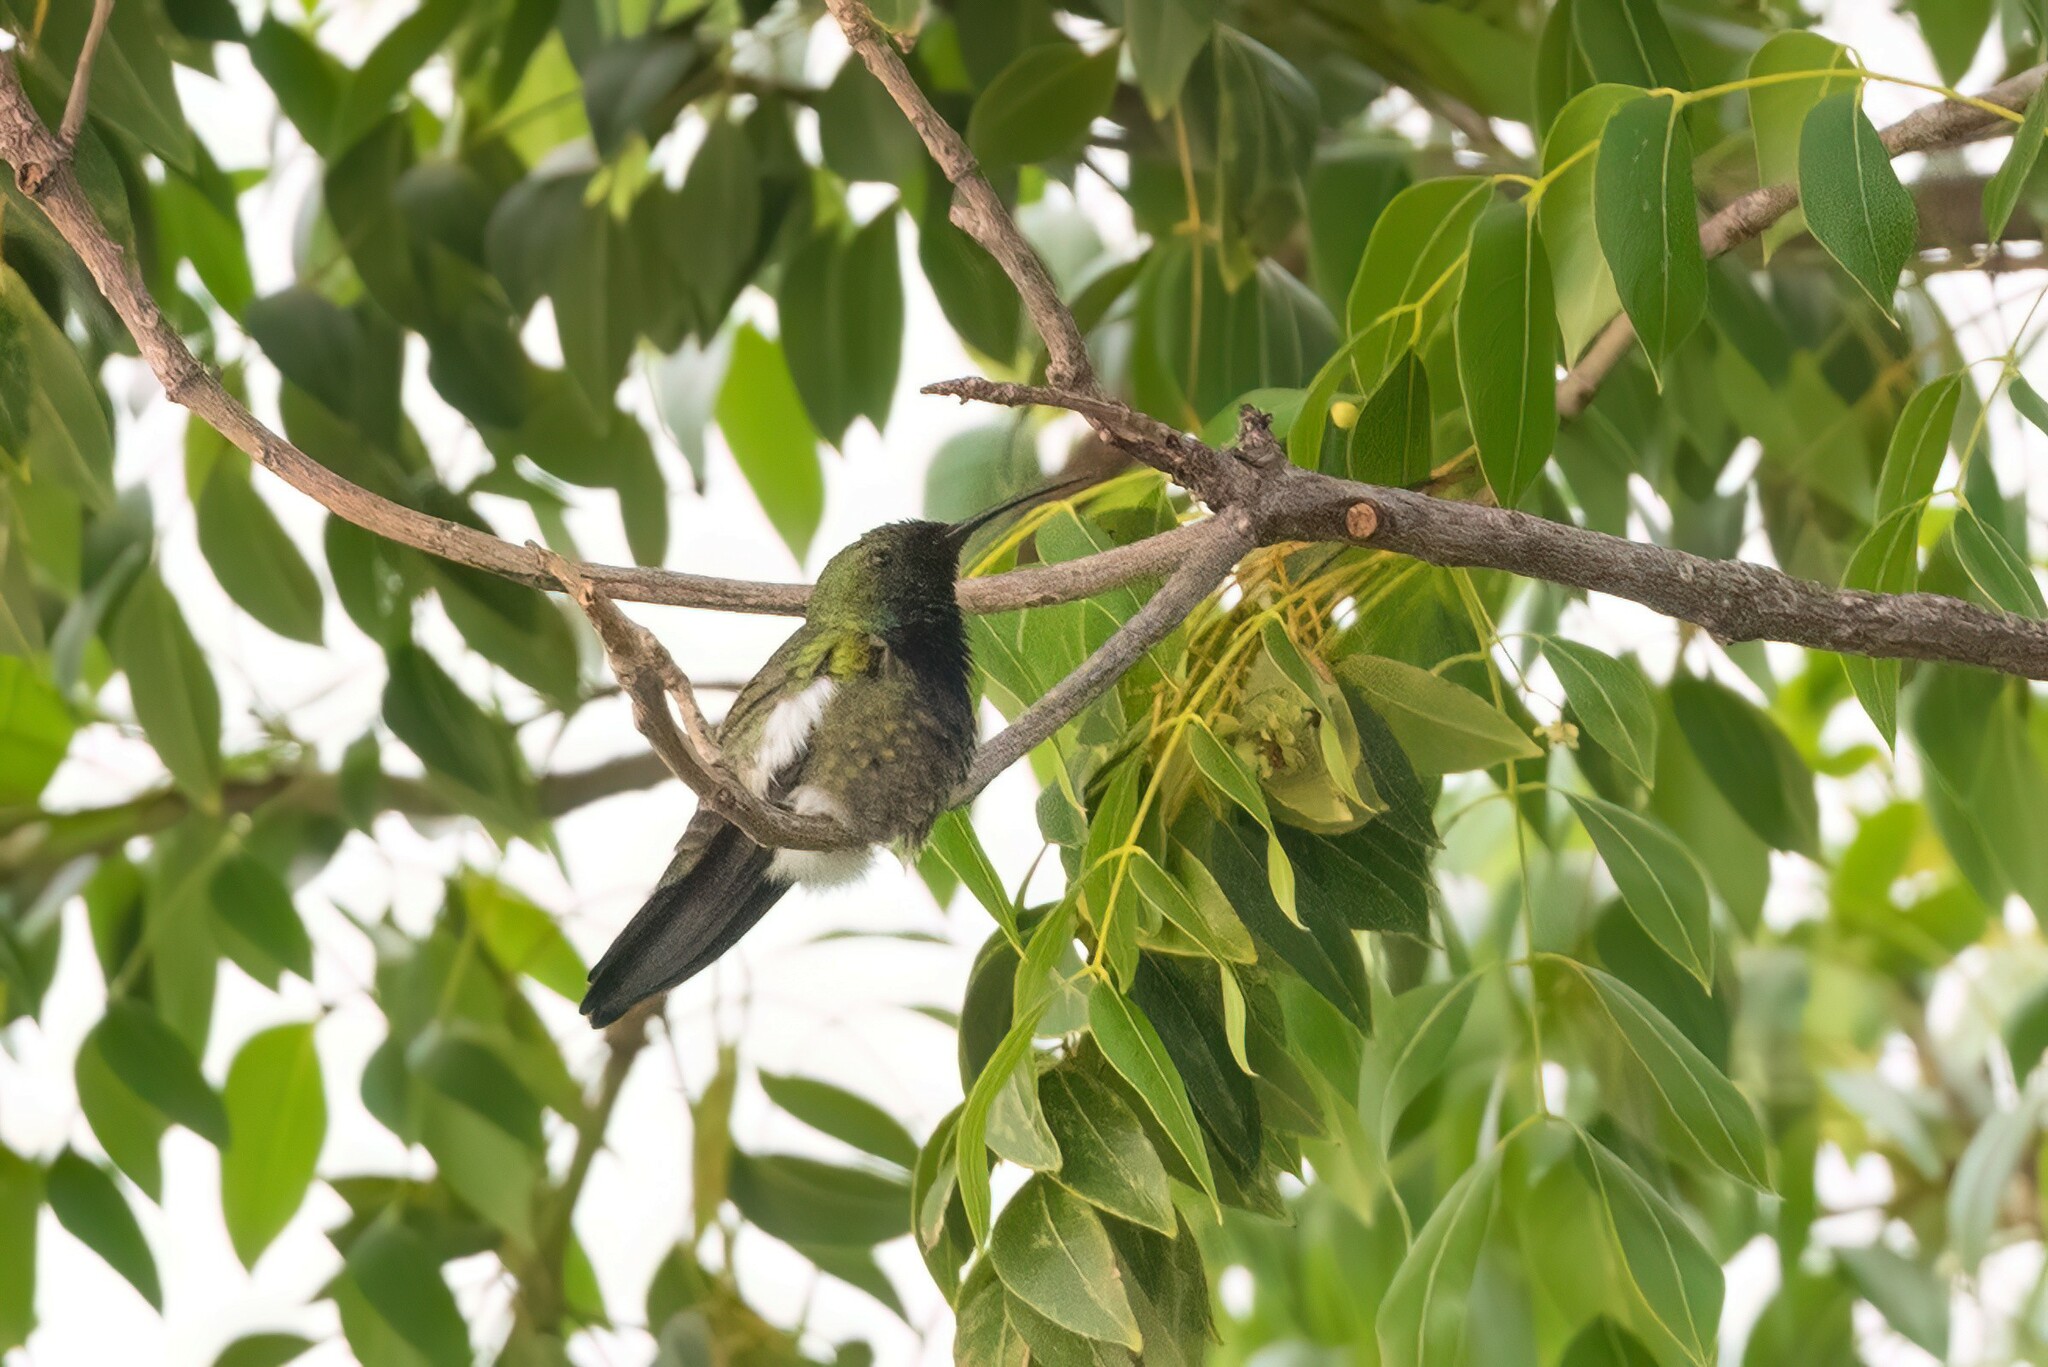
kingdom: Animalia
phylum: Chordata
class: Aves
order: Apodiformes
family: Trochilidae
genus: Anthracothorax
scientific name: Anthracothorax dominicus
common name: Antillean mango
